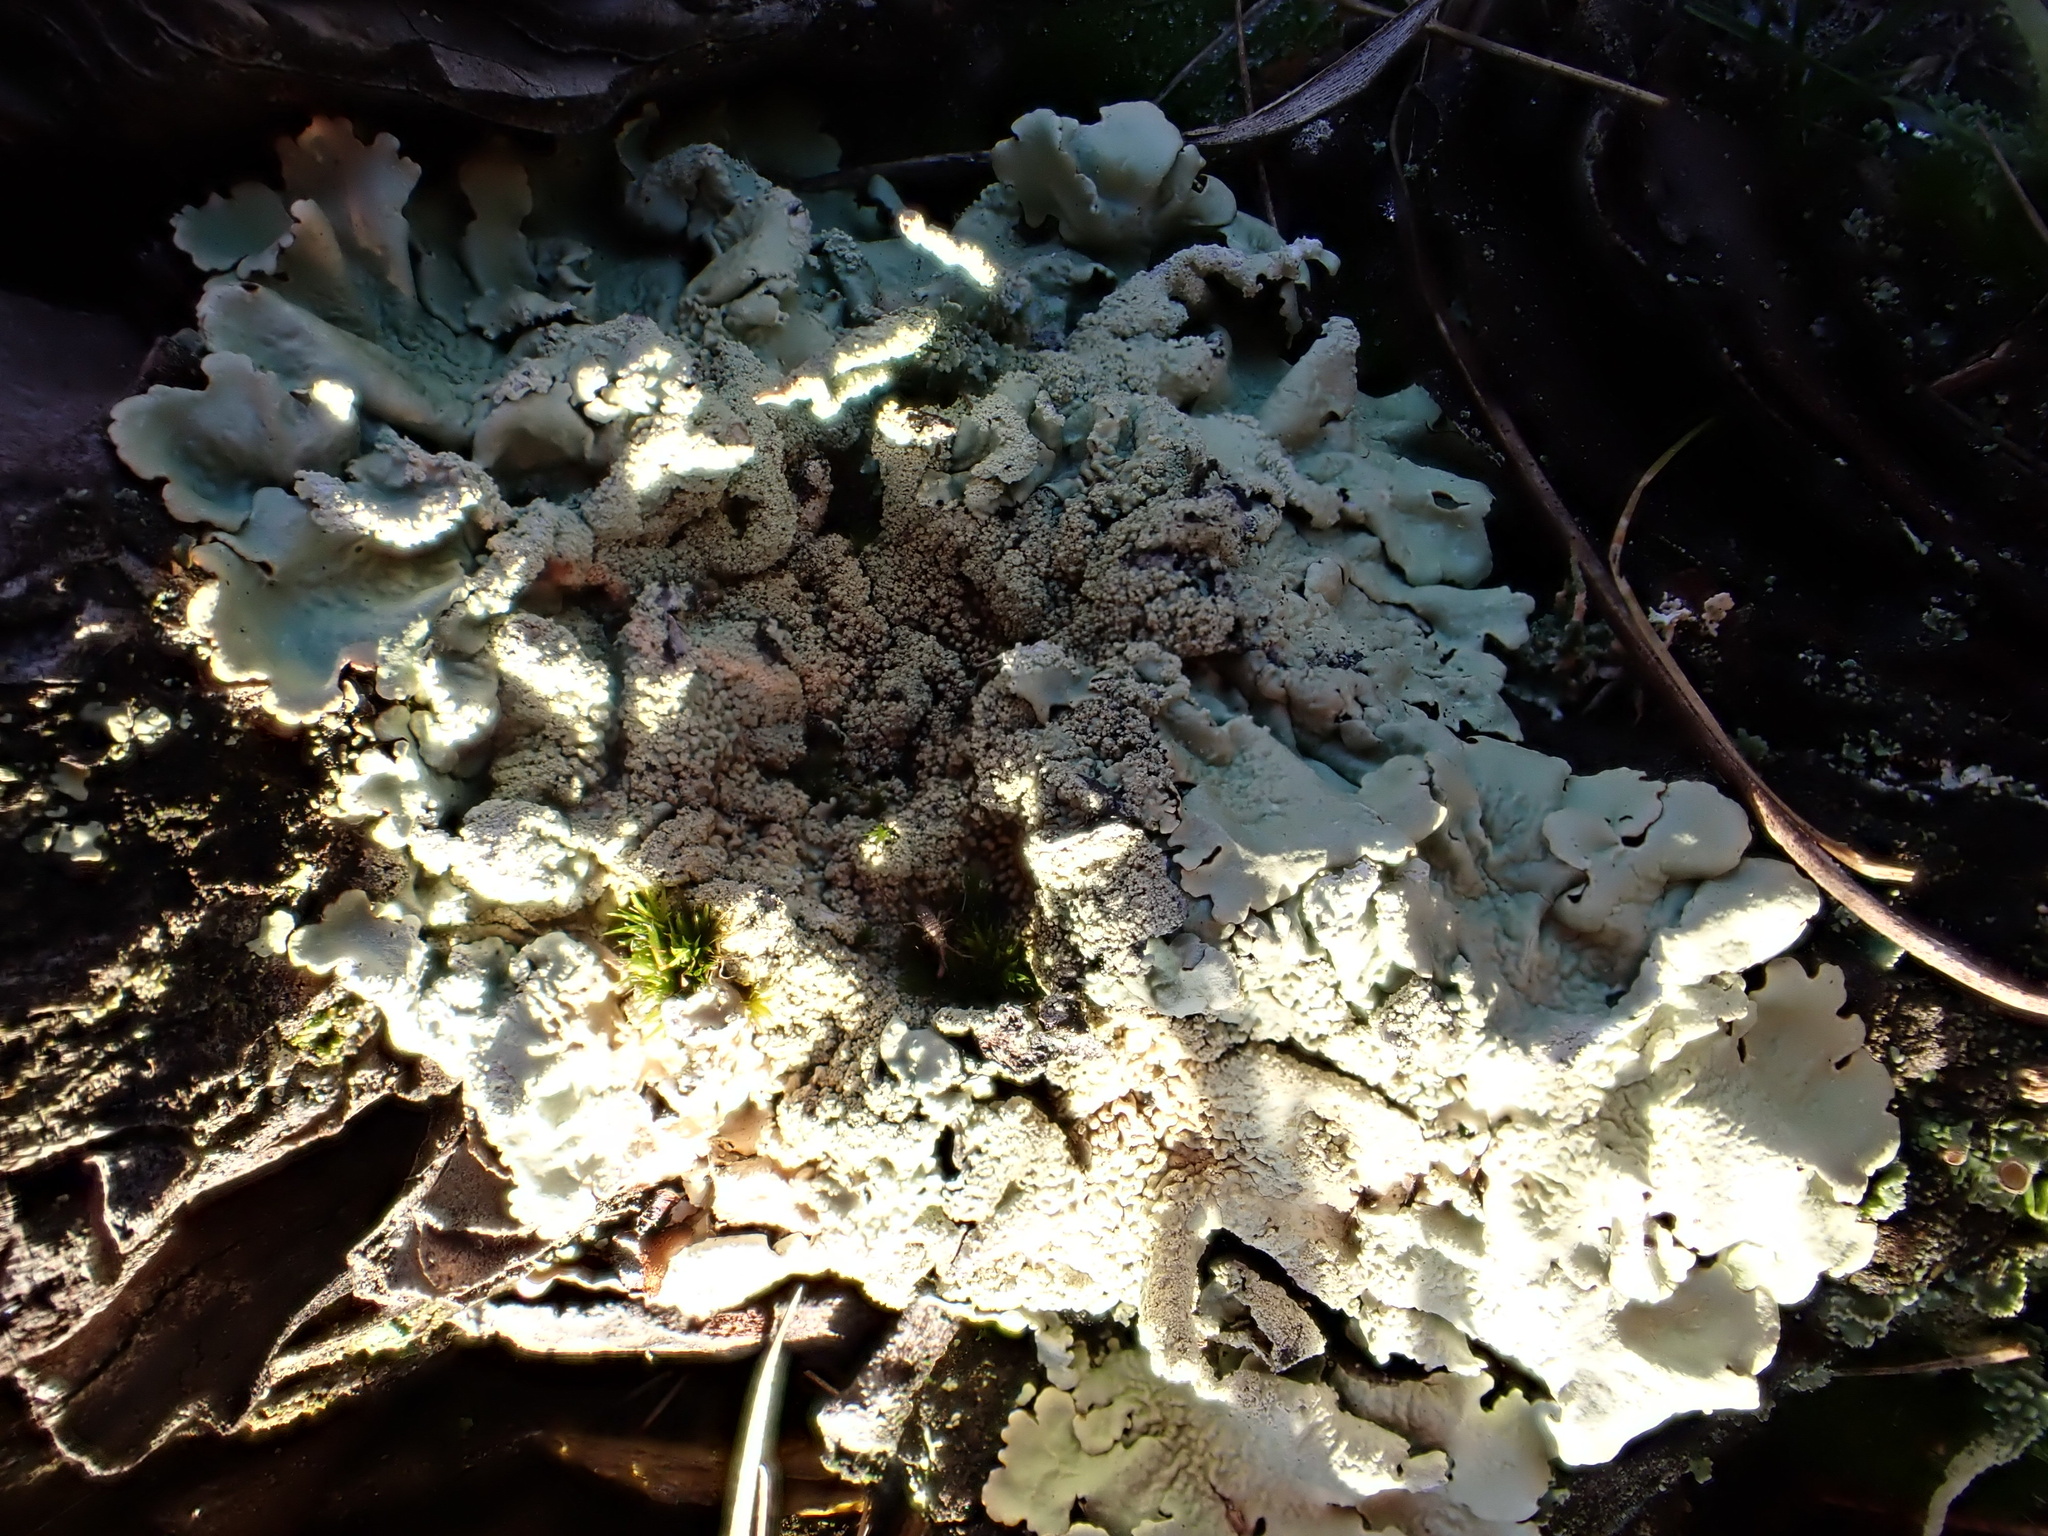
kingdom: Fungi
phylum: Ascomycota
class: Lecanoromycetes
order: Lecanorales
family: Parmeliaceae
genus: Flavoparmelia
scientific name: Flavoparmelia caperata
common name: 40-mile per hour lichen
